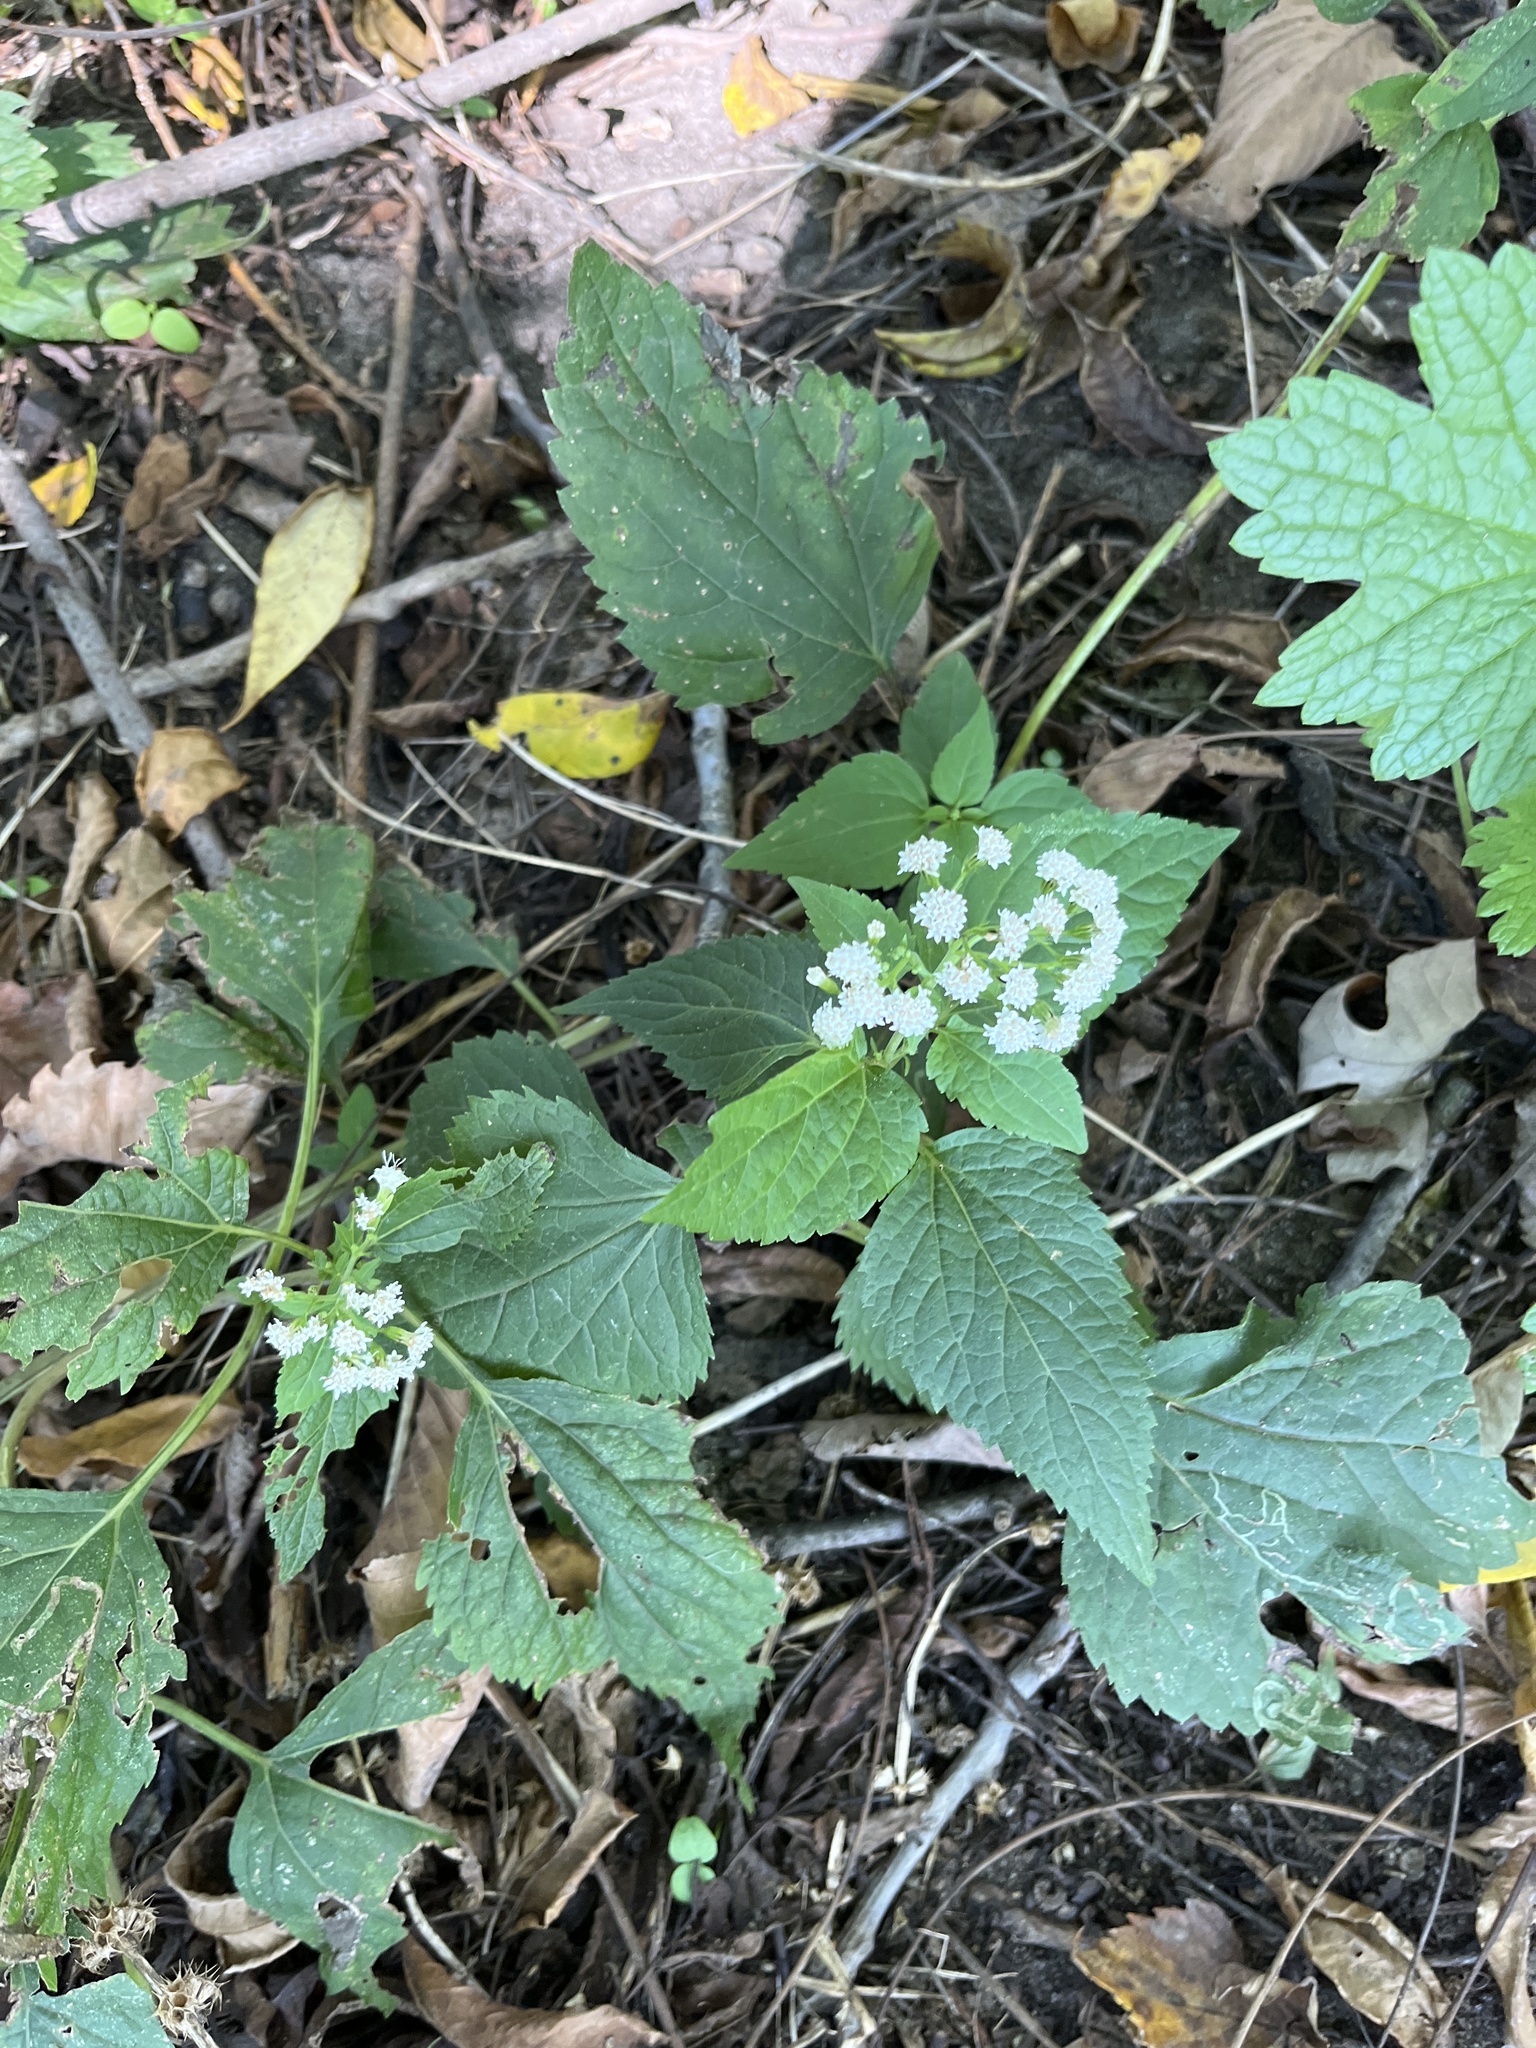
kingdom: Plantae
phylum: Tracheophyta
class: Magnoliopsida
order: Asterales
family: Asteraceae
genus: Ageratina
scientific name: Ageratina altissima
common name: White snakeroot
